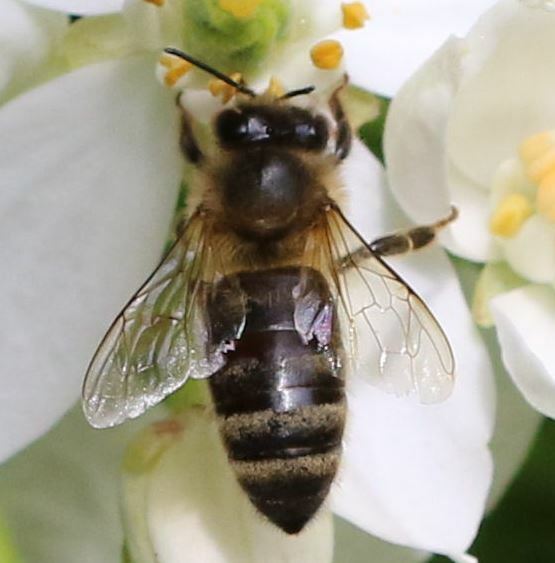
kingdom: Animalia
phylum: Arthropoda
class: Insecta
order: Hymenoptera
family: Apidae
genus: Apis
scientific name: Apis mellifera
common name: Honey bee
